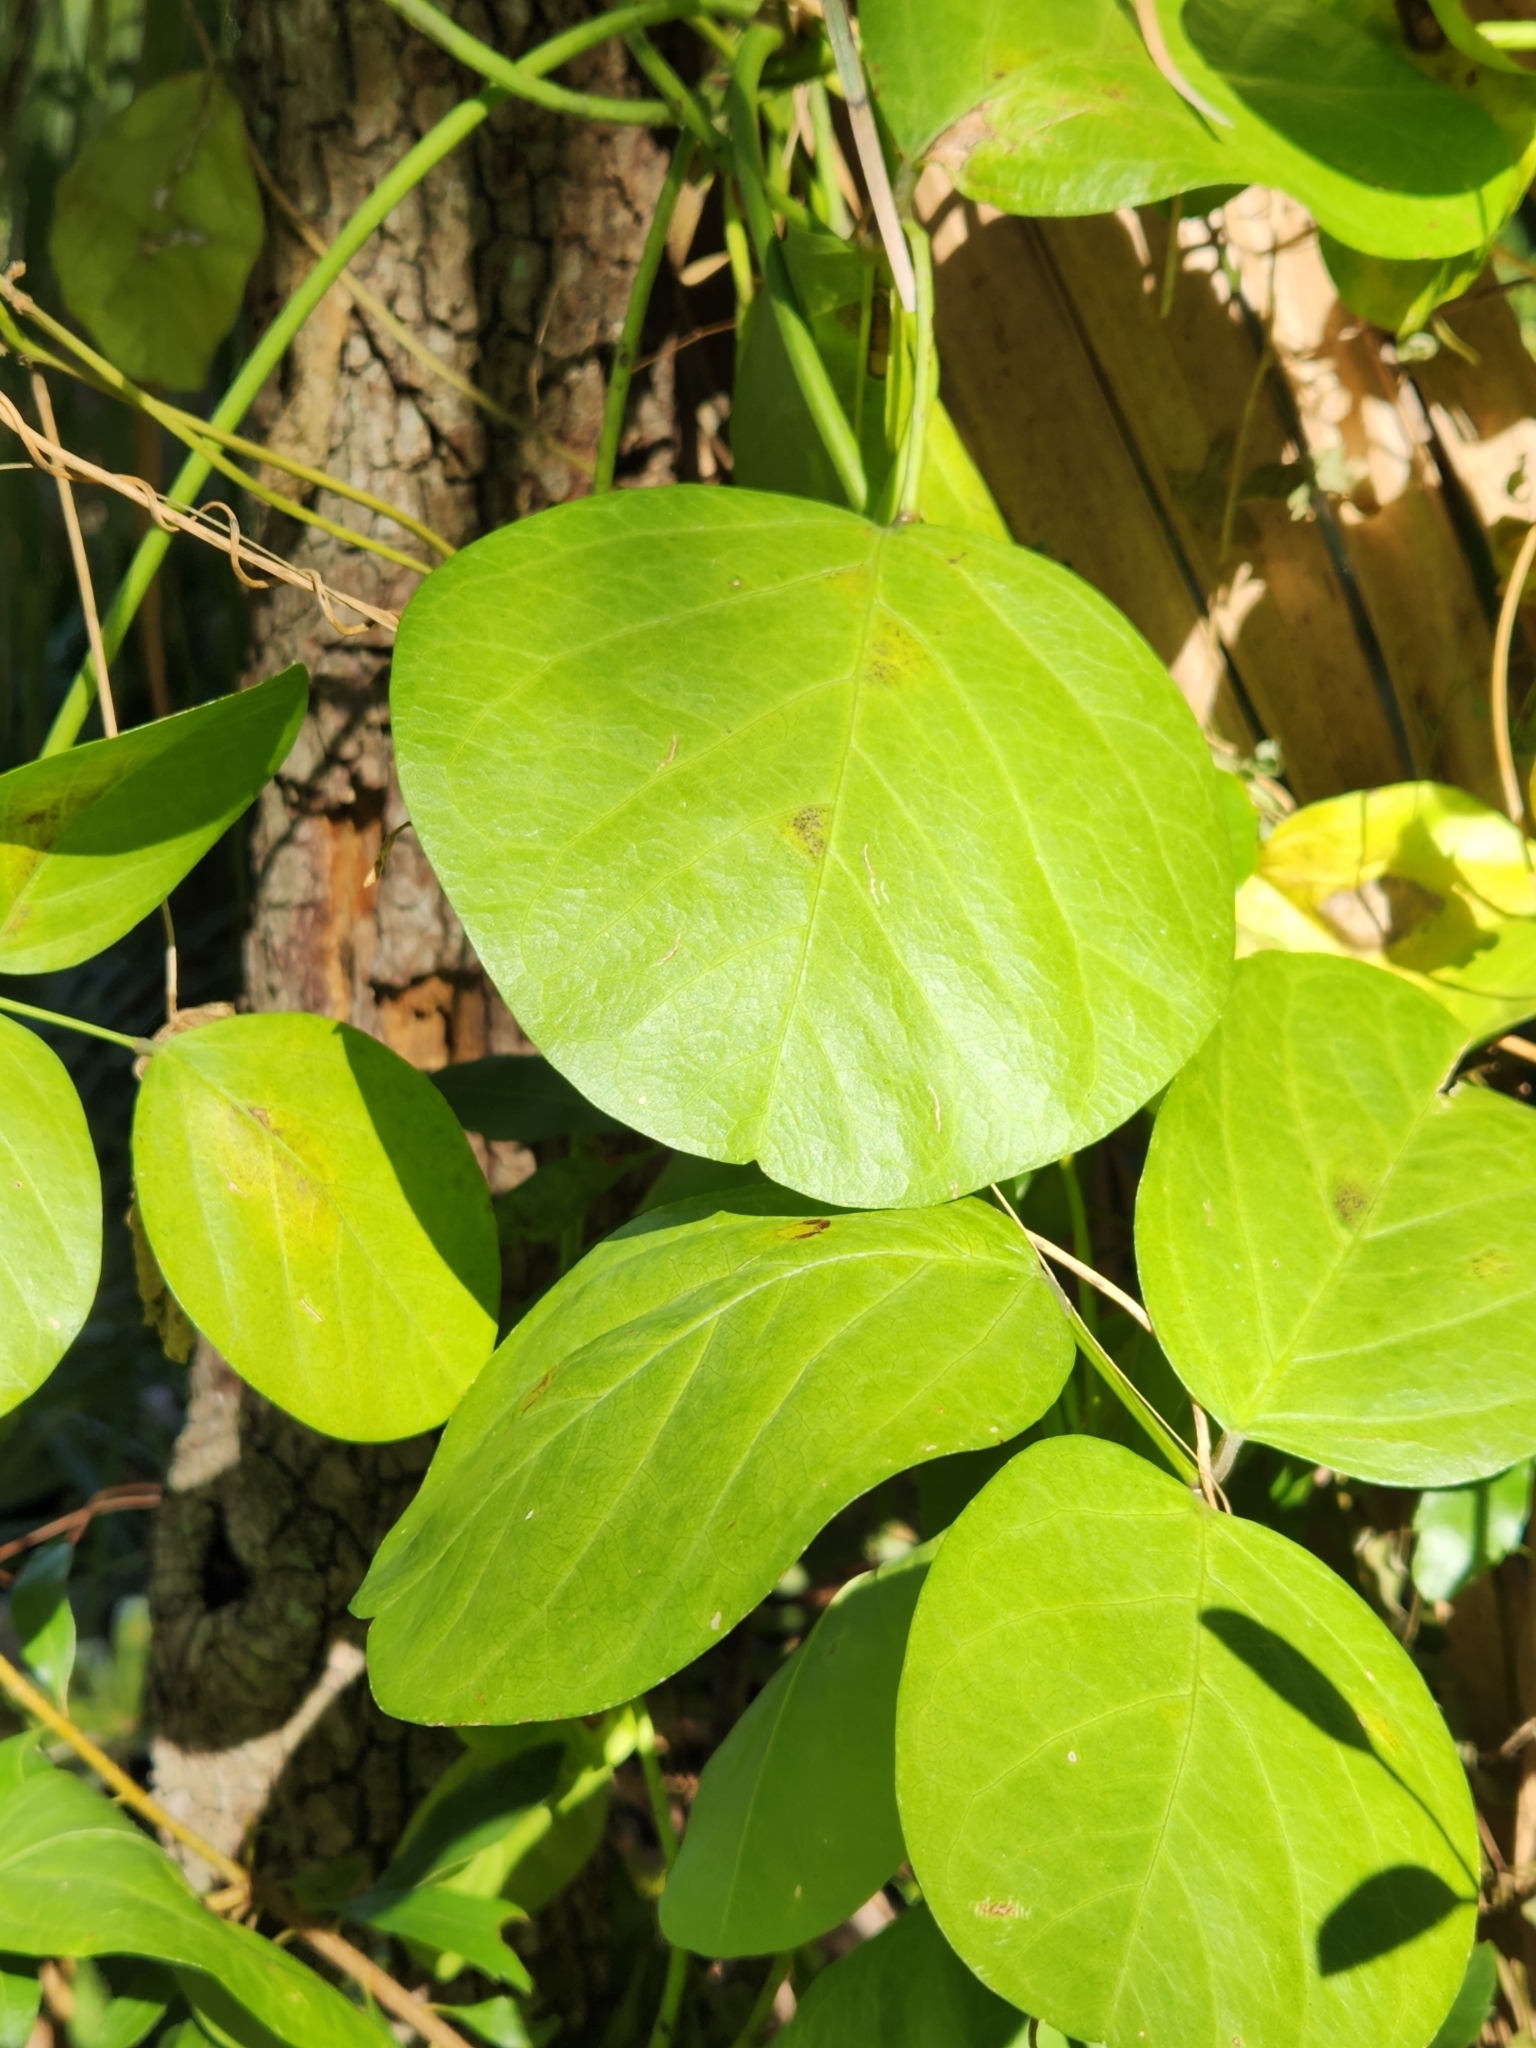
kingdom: Plantae
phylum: Tracheophyta
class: Magnoliopsida
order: Fabales
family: Fabaceae
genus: Canavalia
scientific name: Canavalia rosea
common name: Beach-bean
